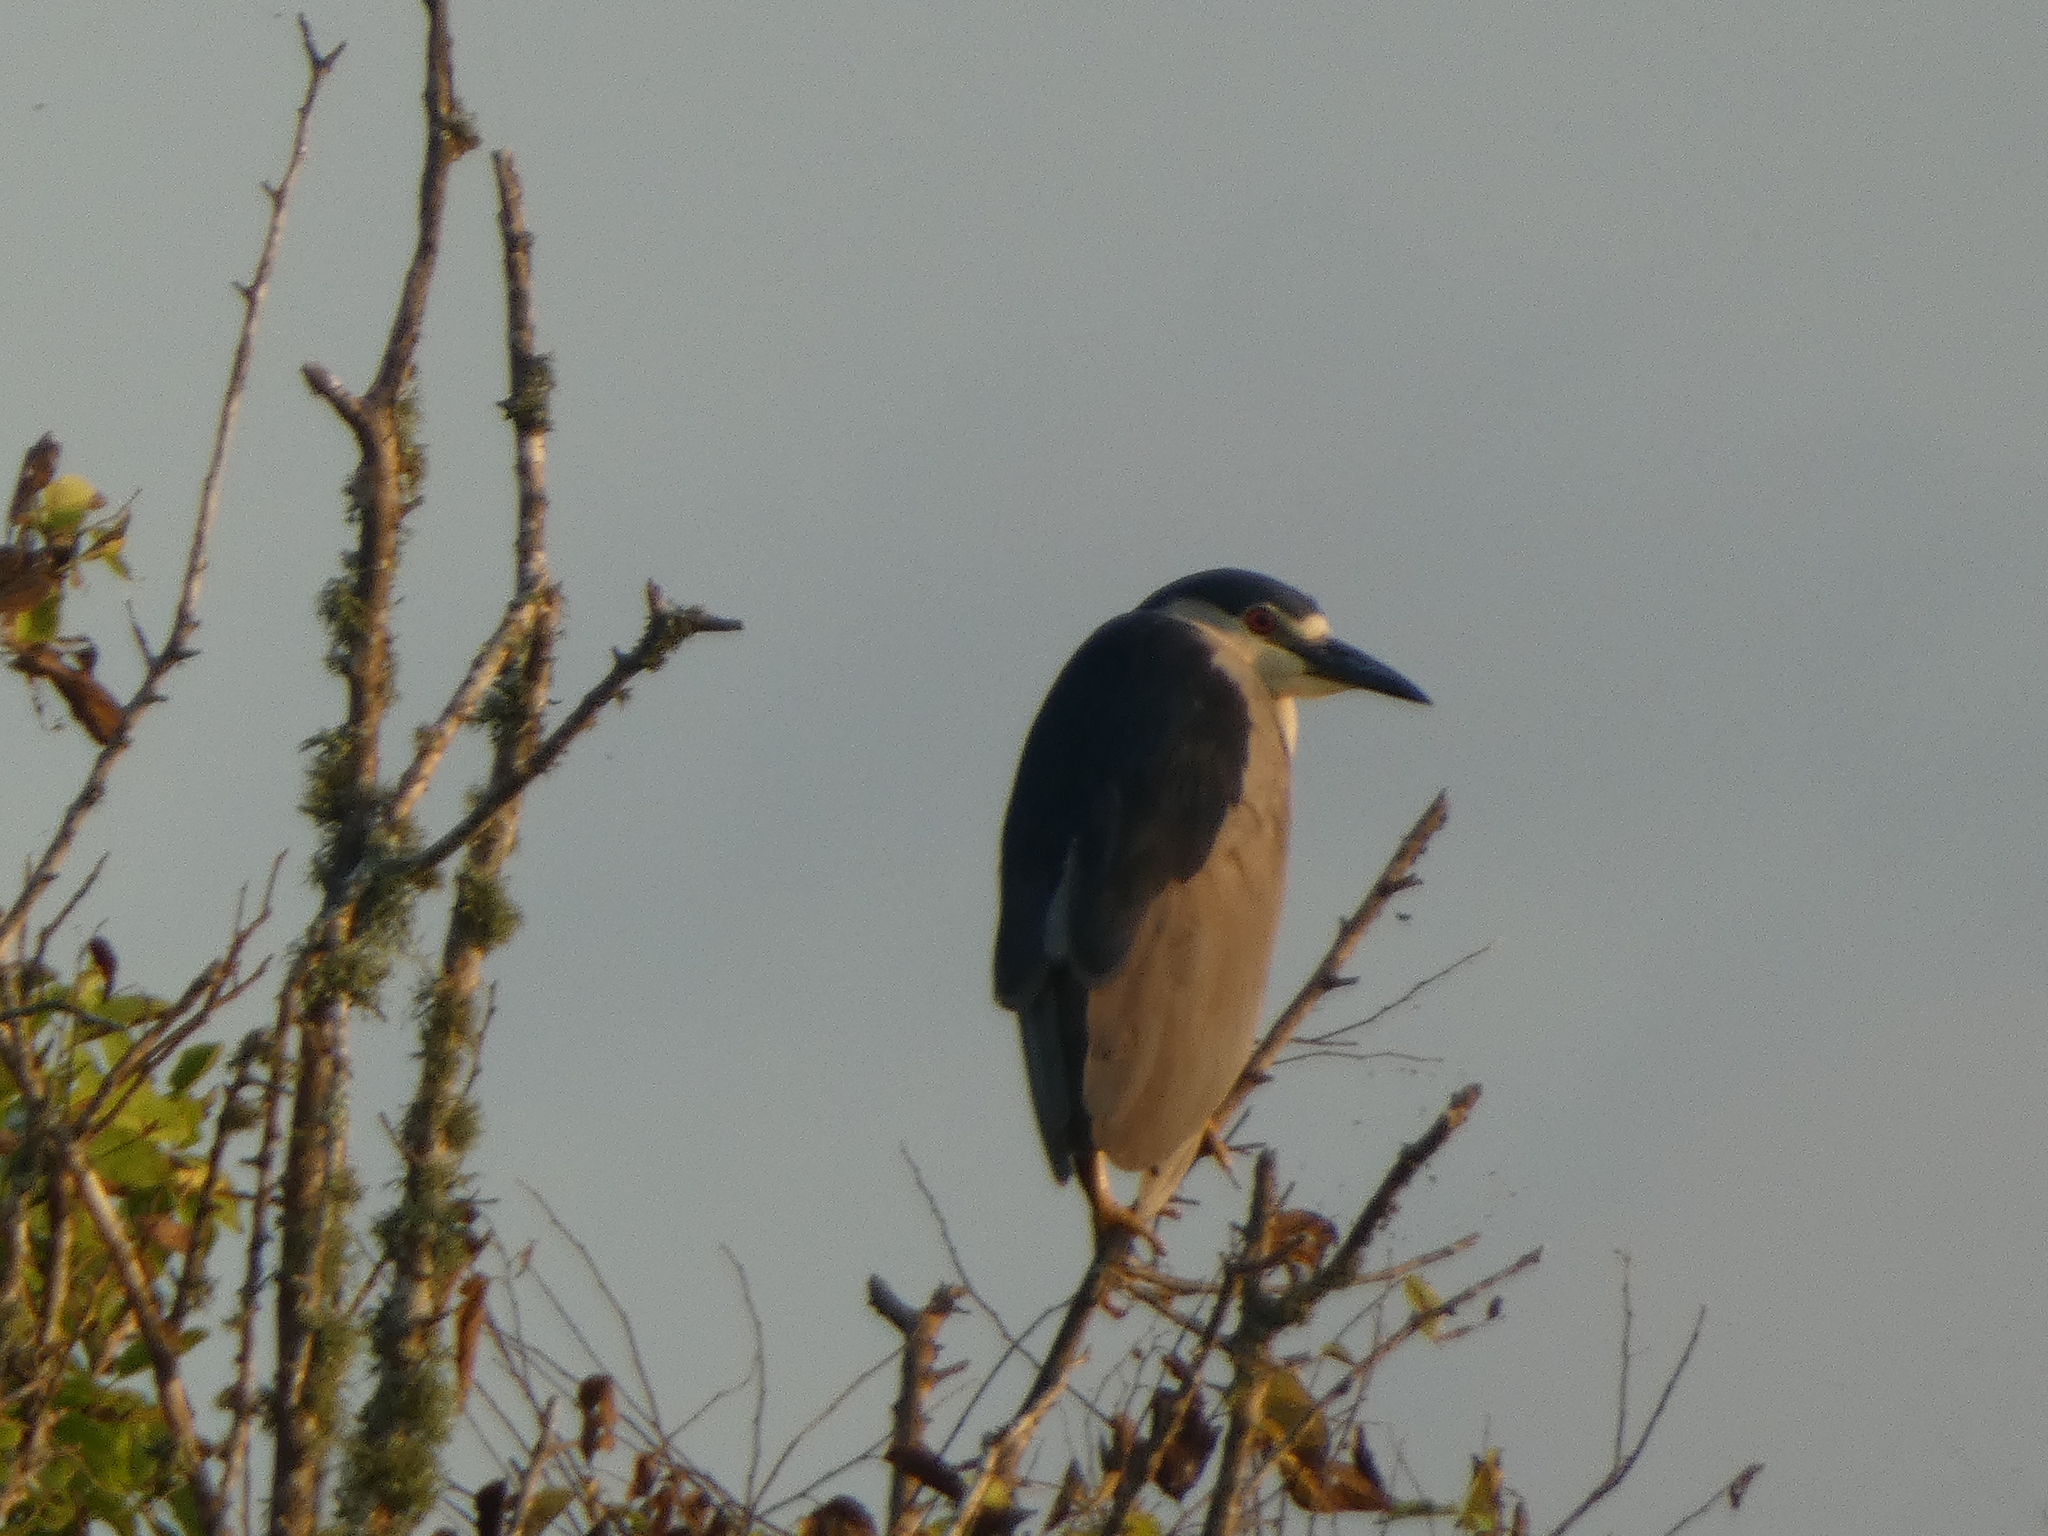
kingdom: Animalia
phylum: Chordata
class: Aves
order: Pelecaniformes
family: Ardeidae
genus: Nycticorax
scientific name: Nycticorax nycticorax
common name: Black-crowned night heron
